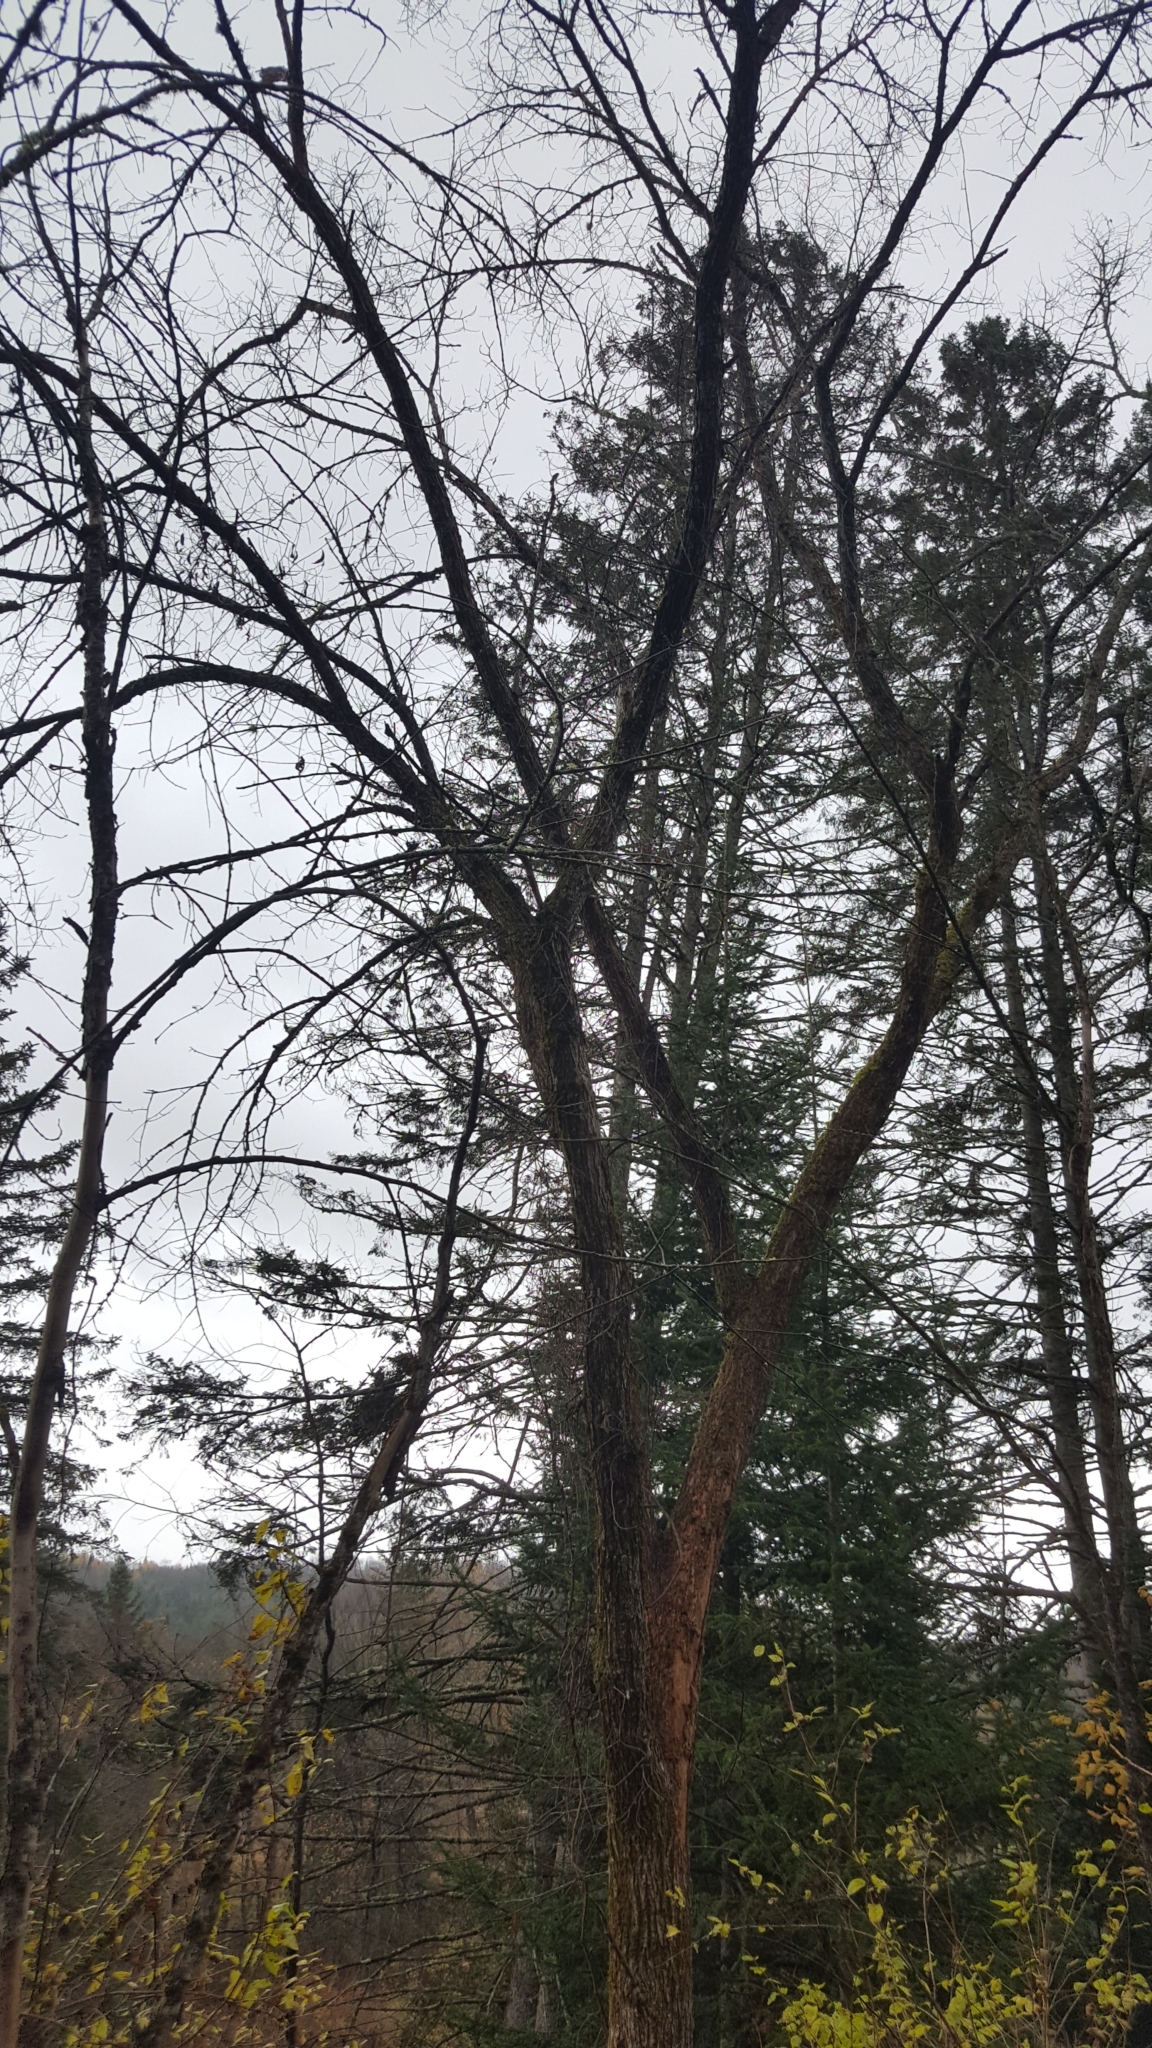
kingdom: Plantae
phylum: Tracheophyta
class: Magnoliopsida
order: Rosales
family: Ulmaceae
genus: Ulmus
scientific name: Ulmus americana
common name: American elm
